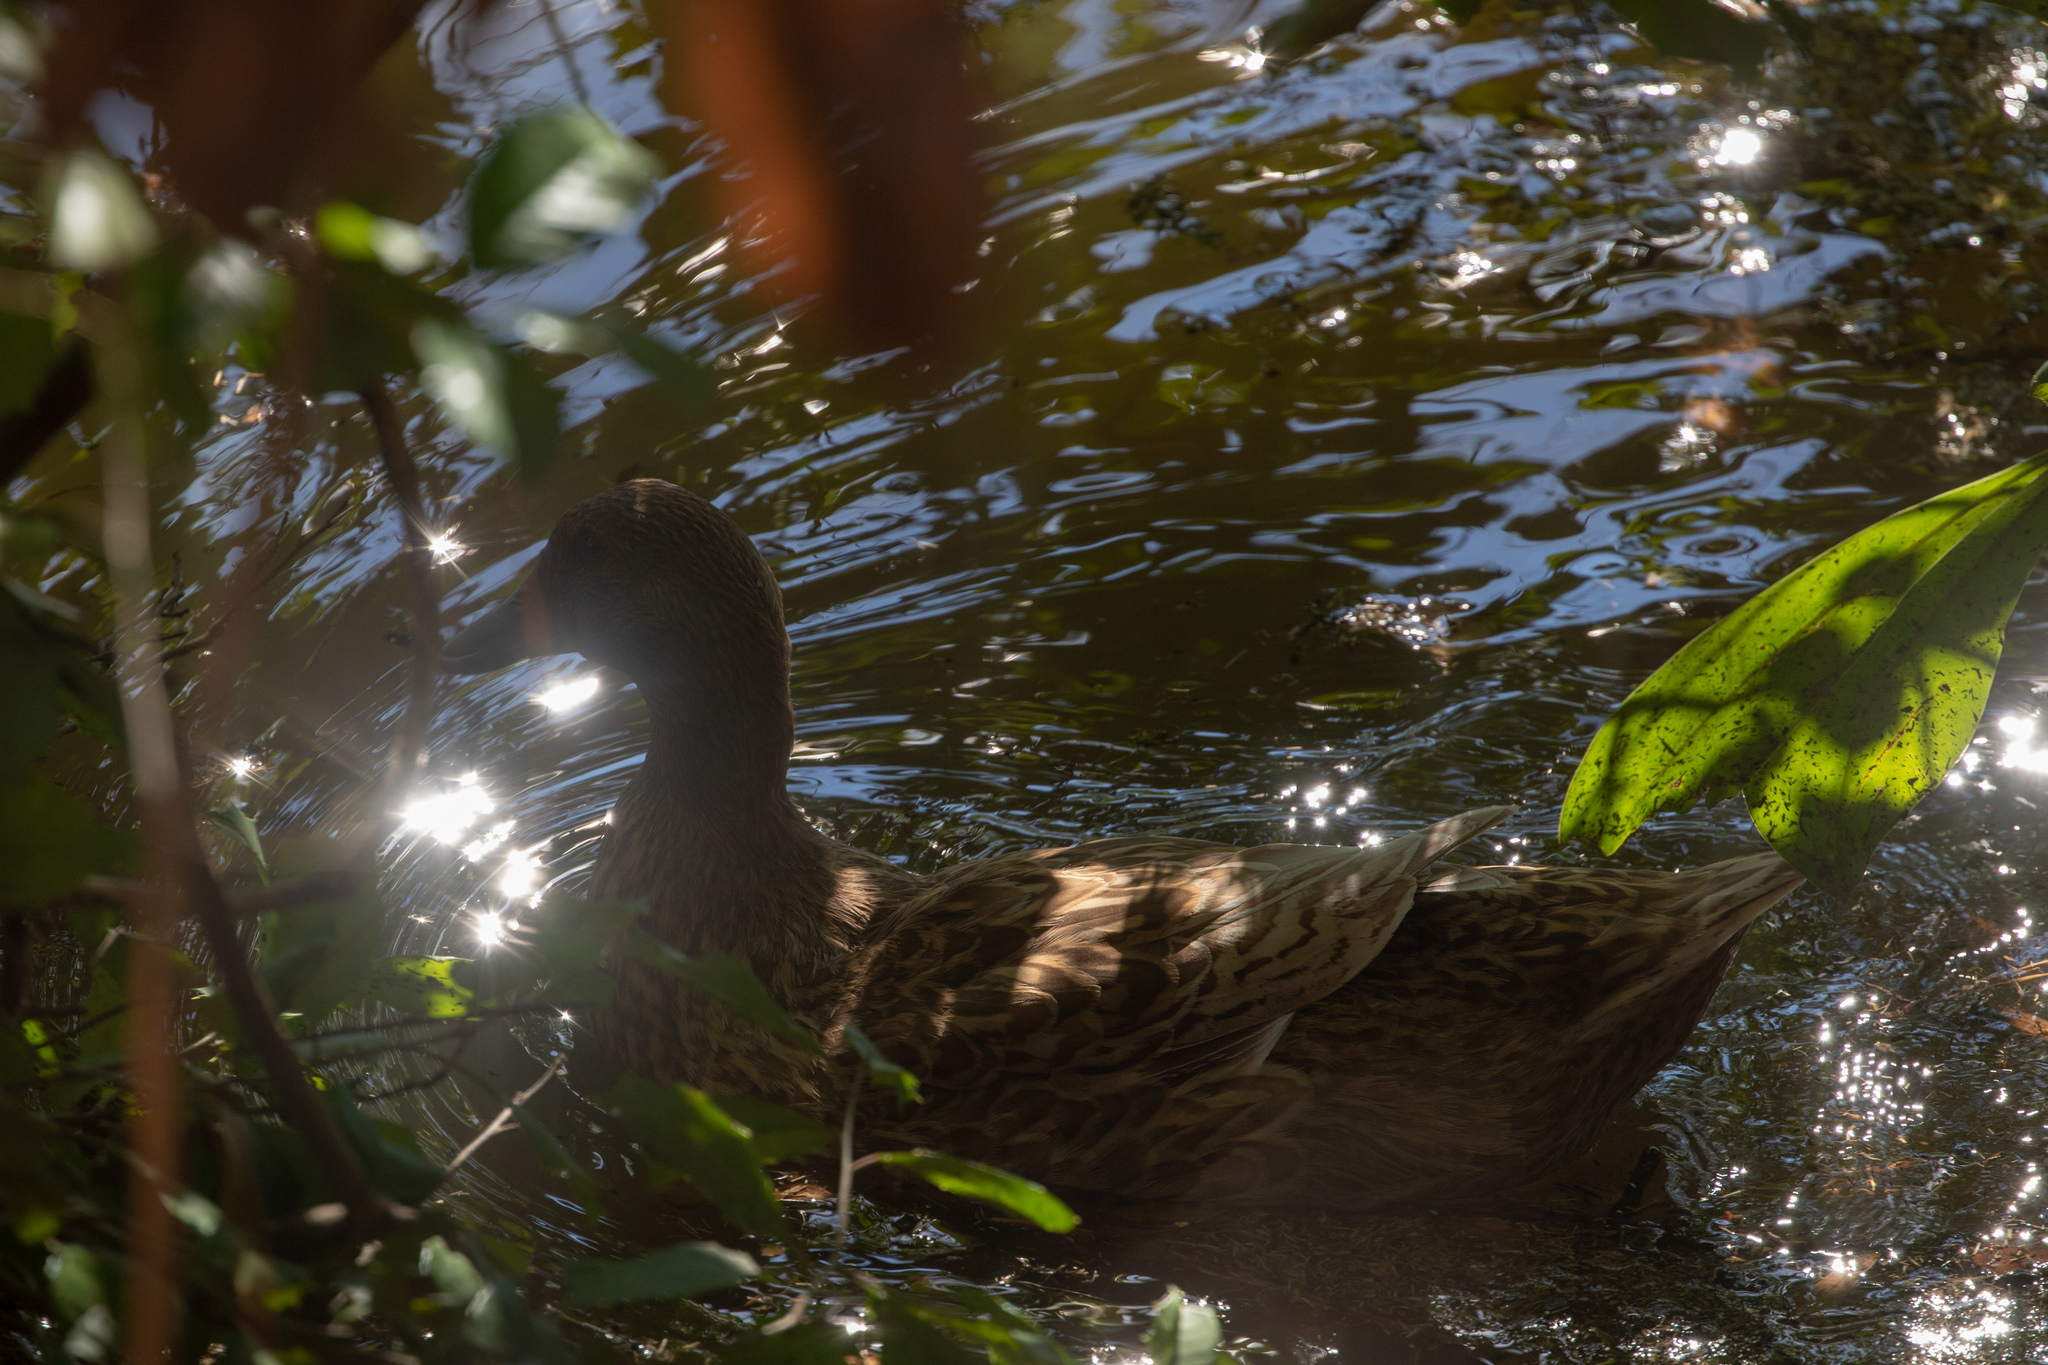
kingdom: Animalia
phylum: Chordata
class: Aves
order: Anseriformes
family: Anatidae
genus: Anas
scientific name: Anas platyrhynchos
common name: Mallard
